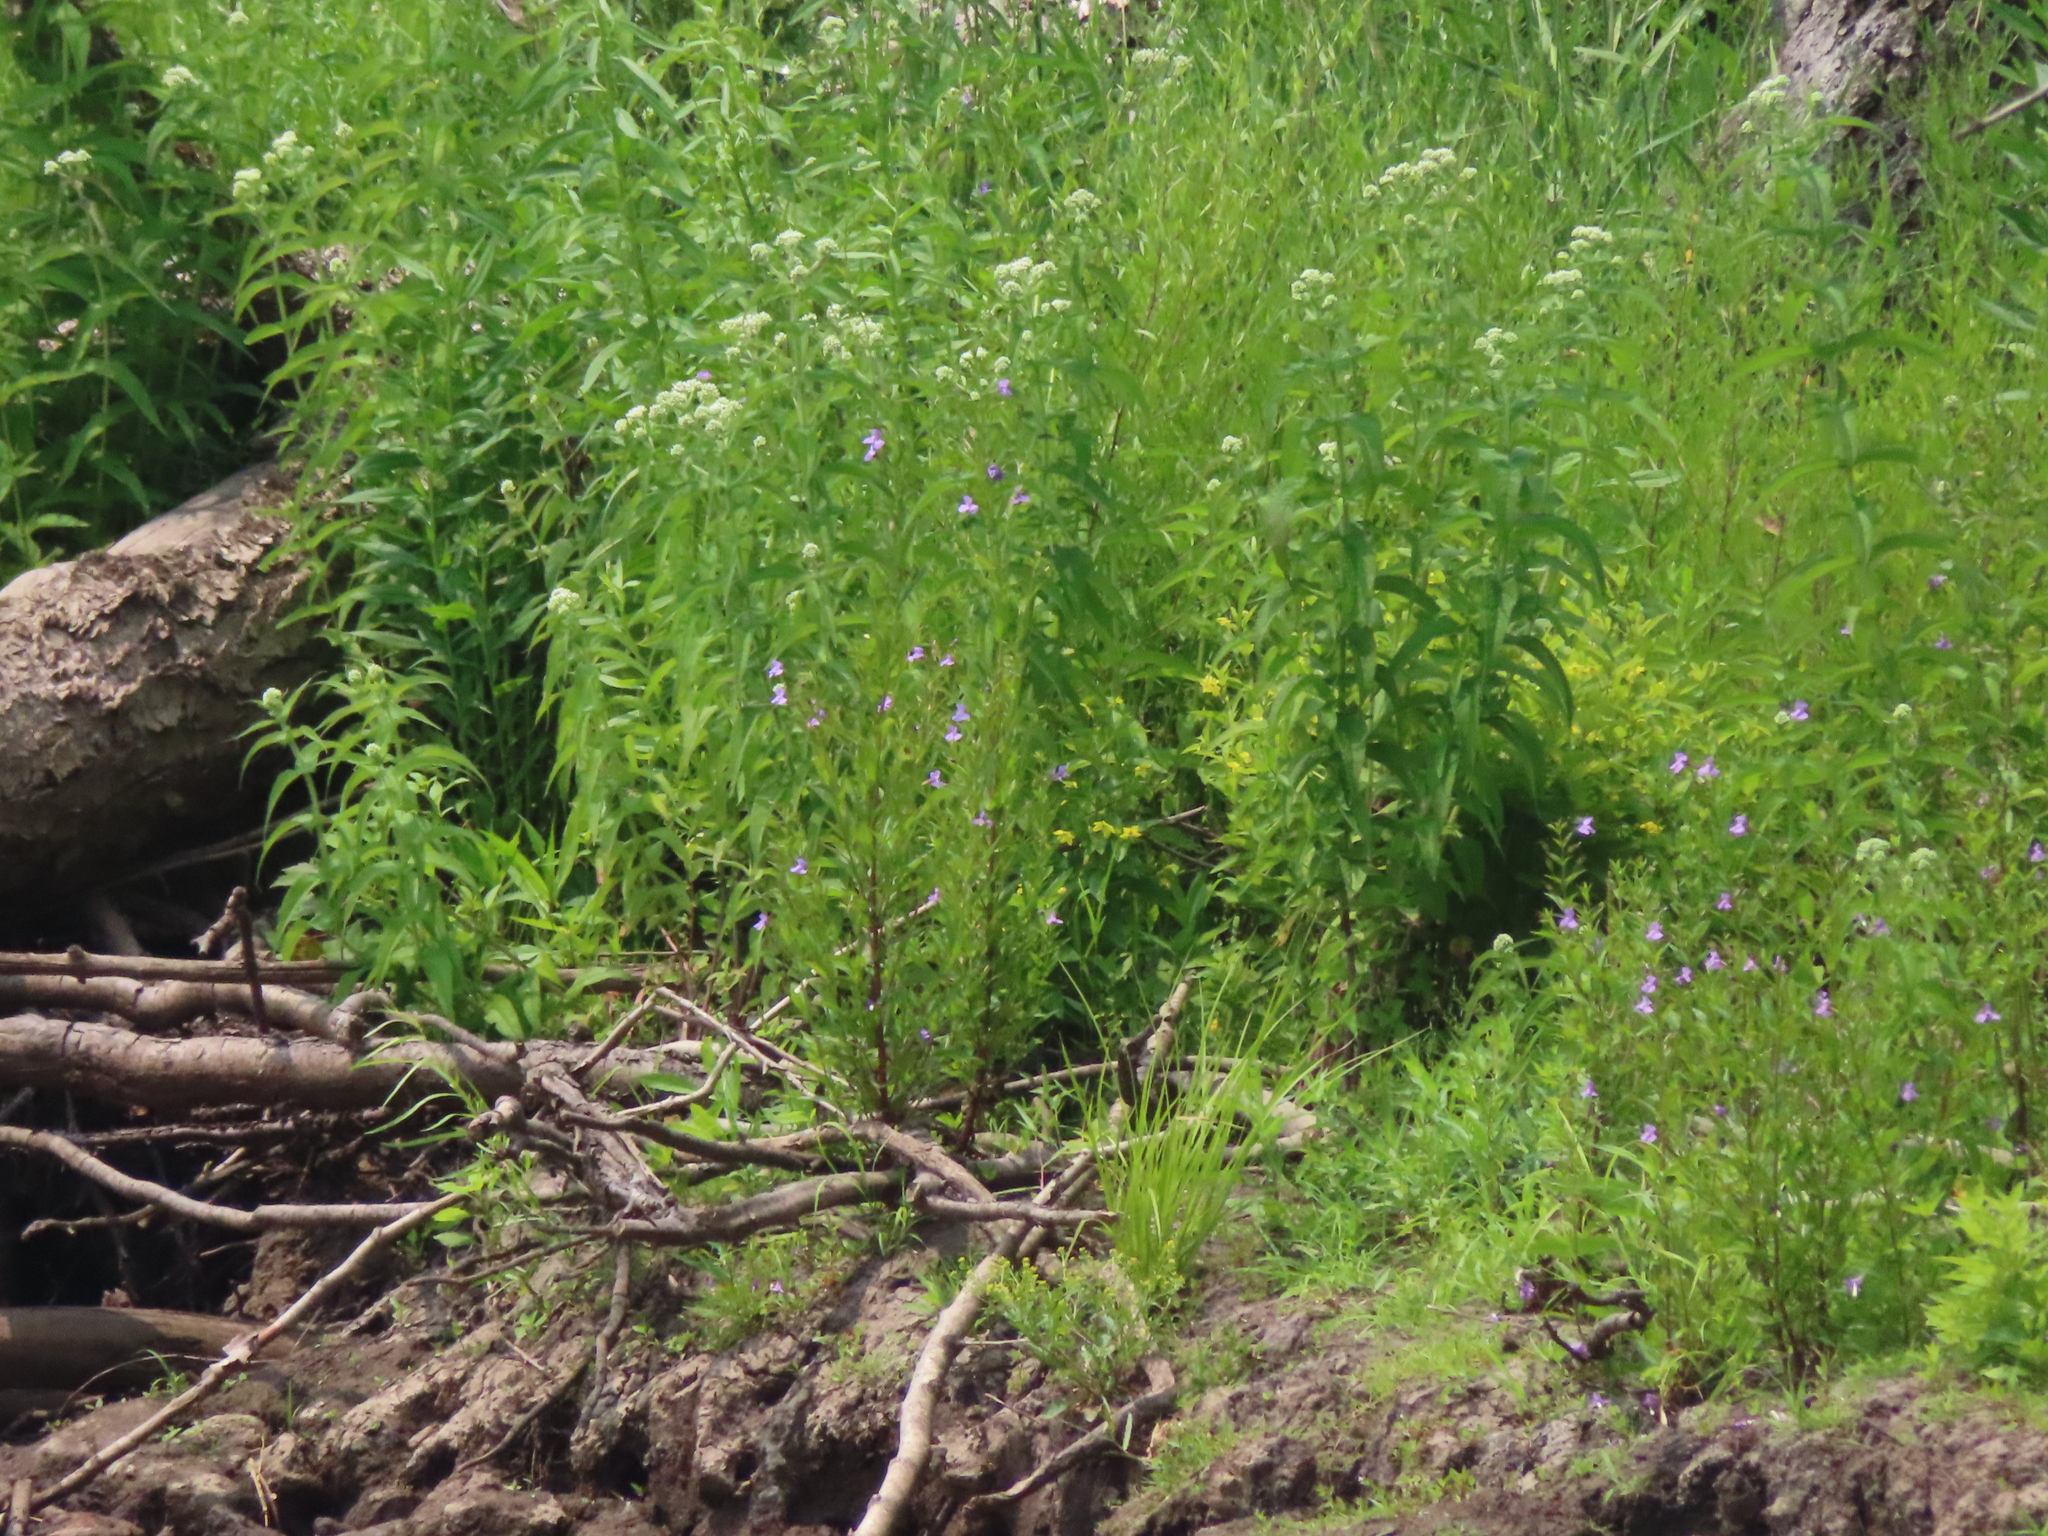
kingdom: Plantae
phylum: Tracheophyta
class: Magnoliopsida
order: Lamiales
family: Phrymaceae
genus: Mimulus
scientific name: Mimulus ringens
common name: Allegheny monkeyflower
